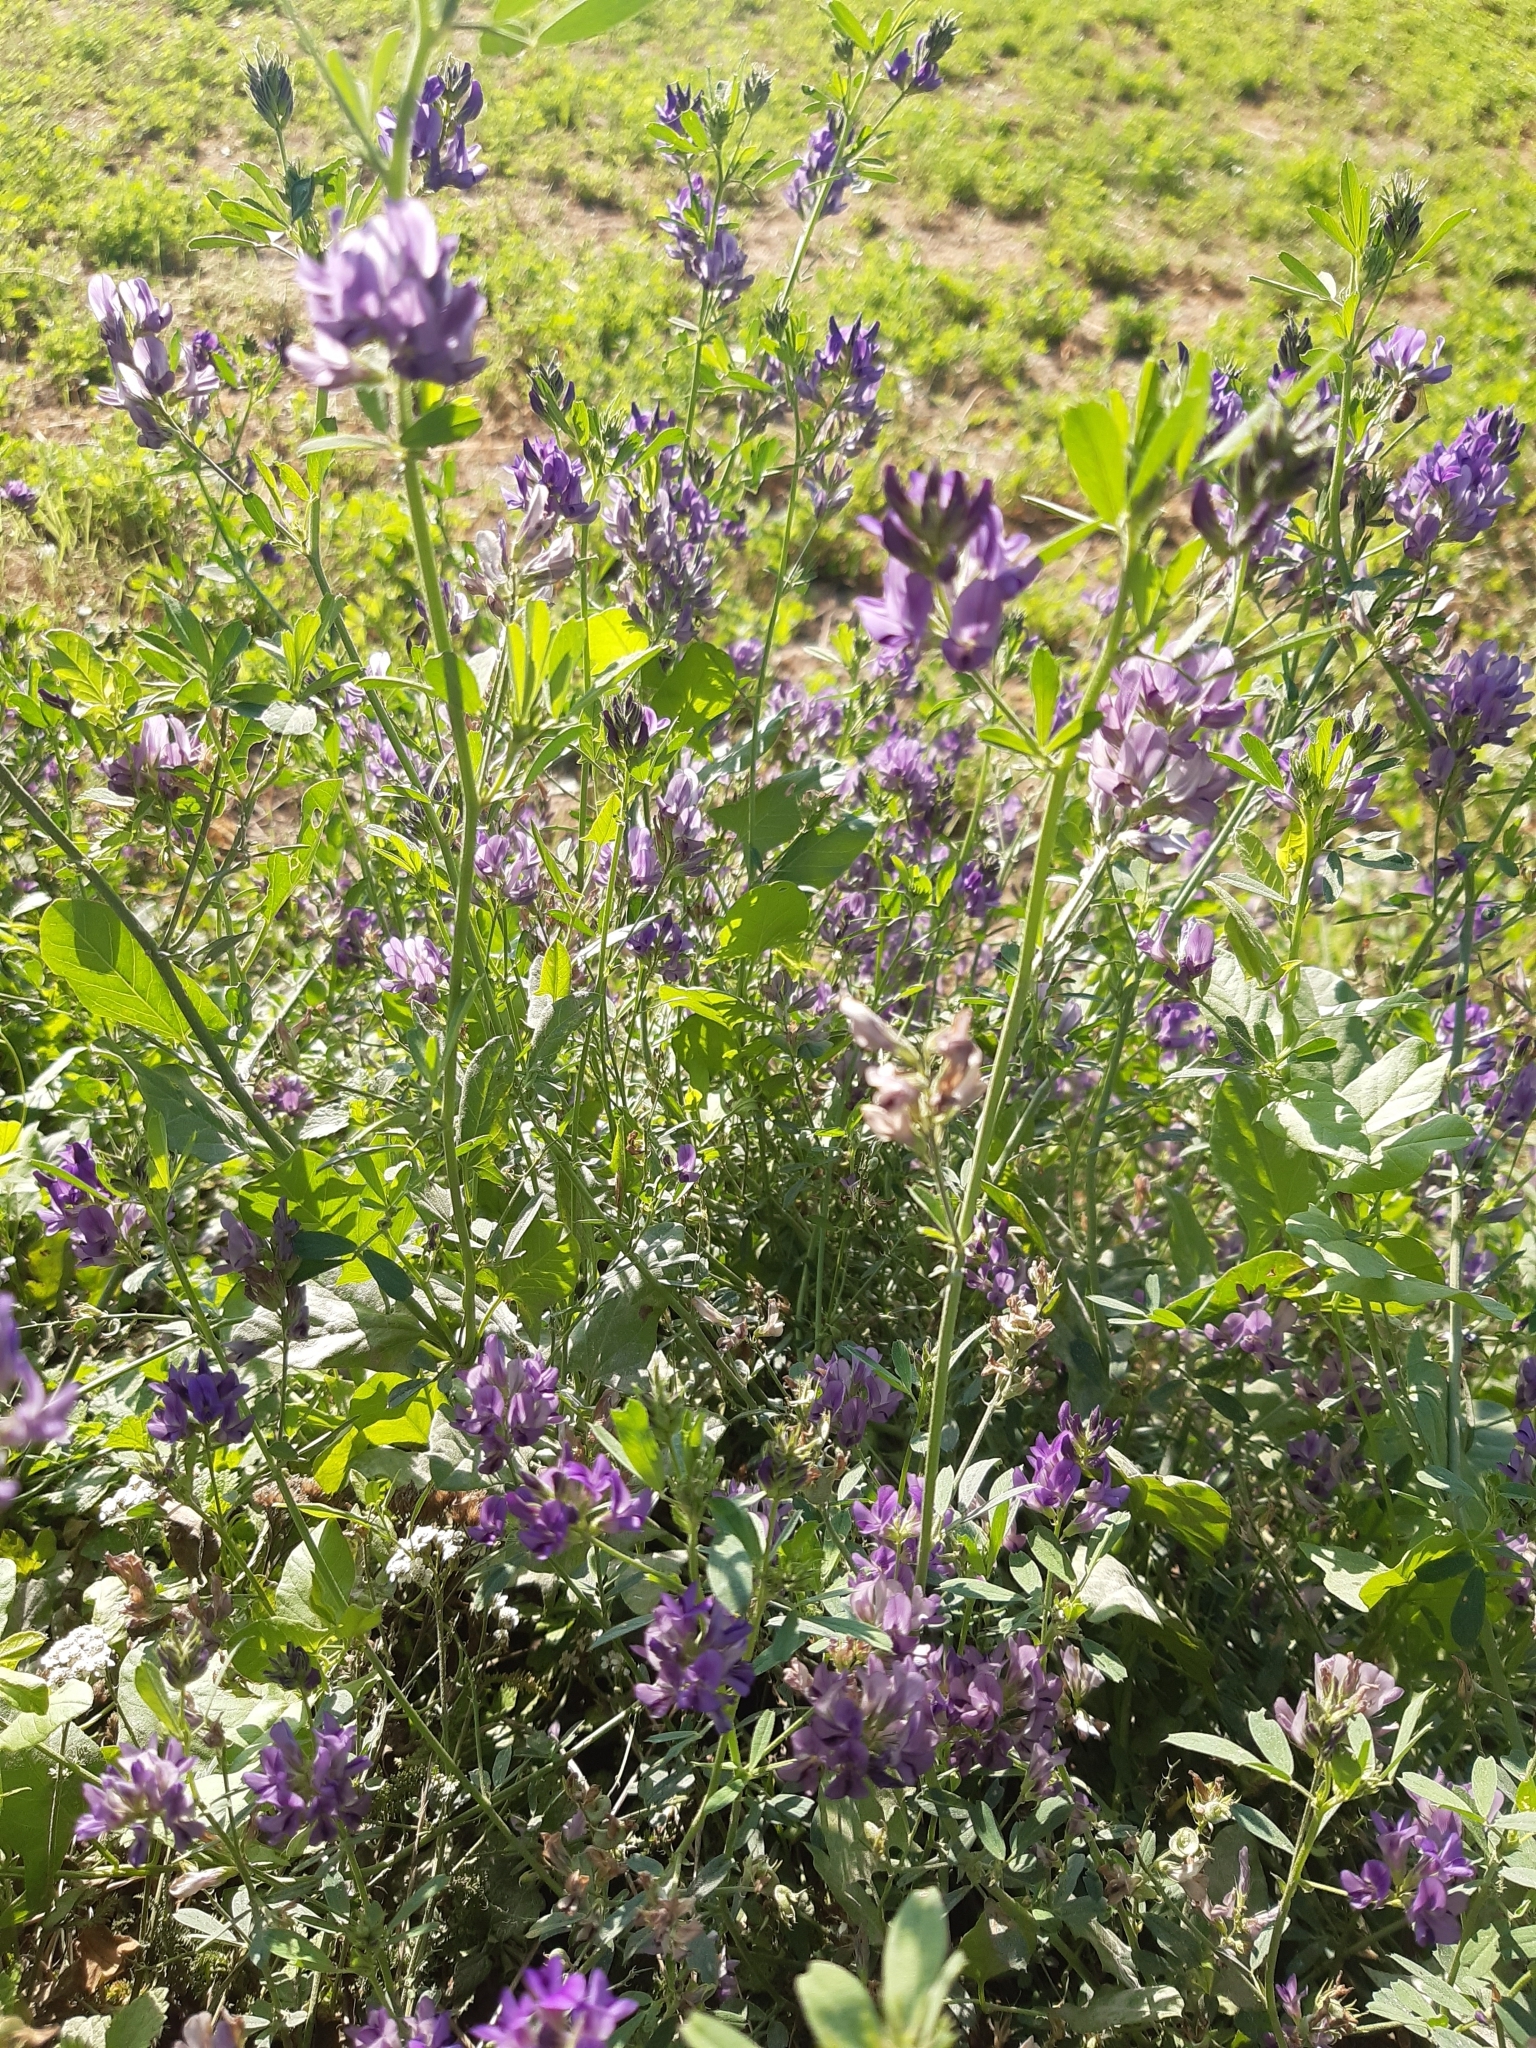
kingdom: Plantae
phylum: Tracheophyta
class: Magnoliopsida
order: Fabales
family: Fabaceae
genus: Medicago
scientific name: Medicago sativa
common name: Alfalfa
